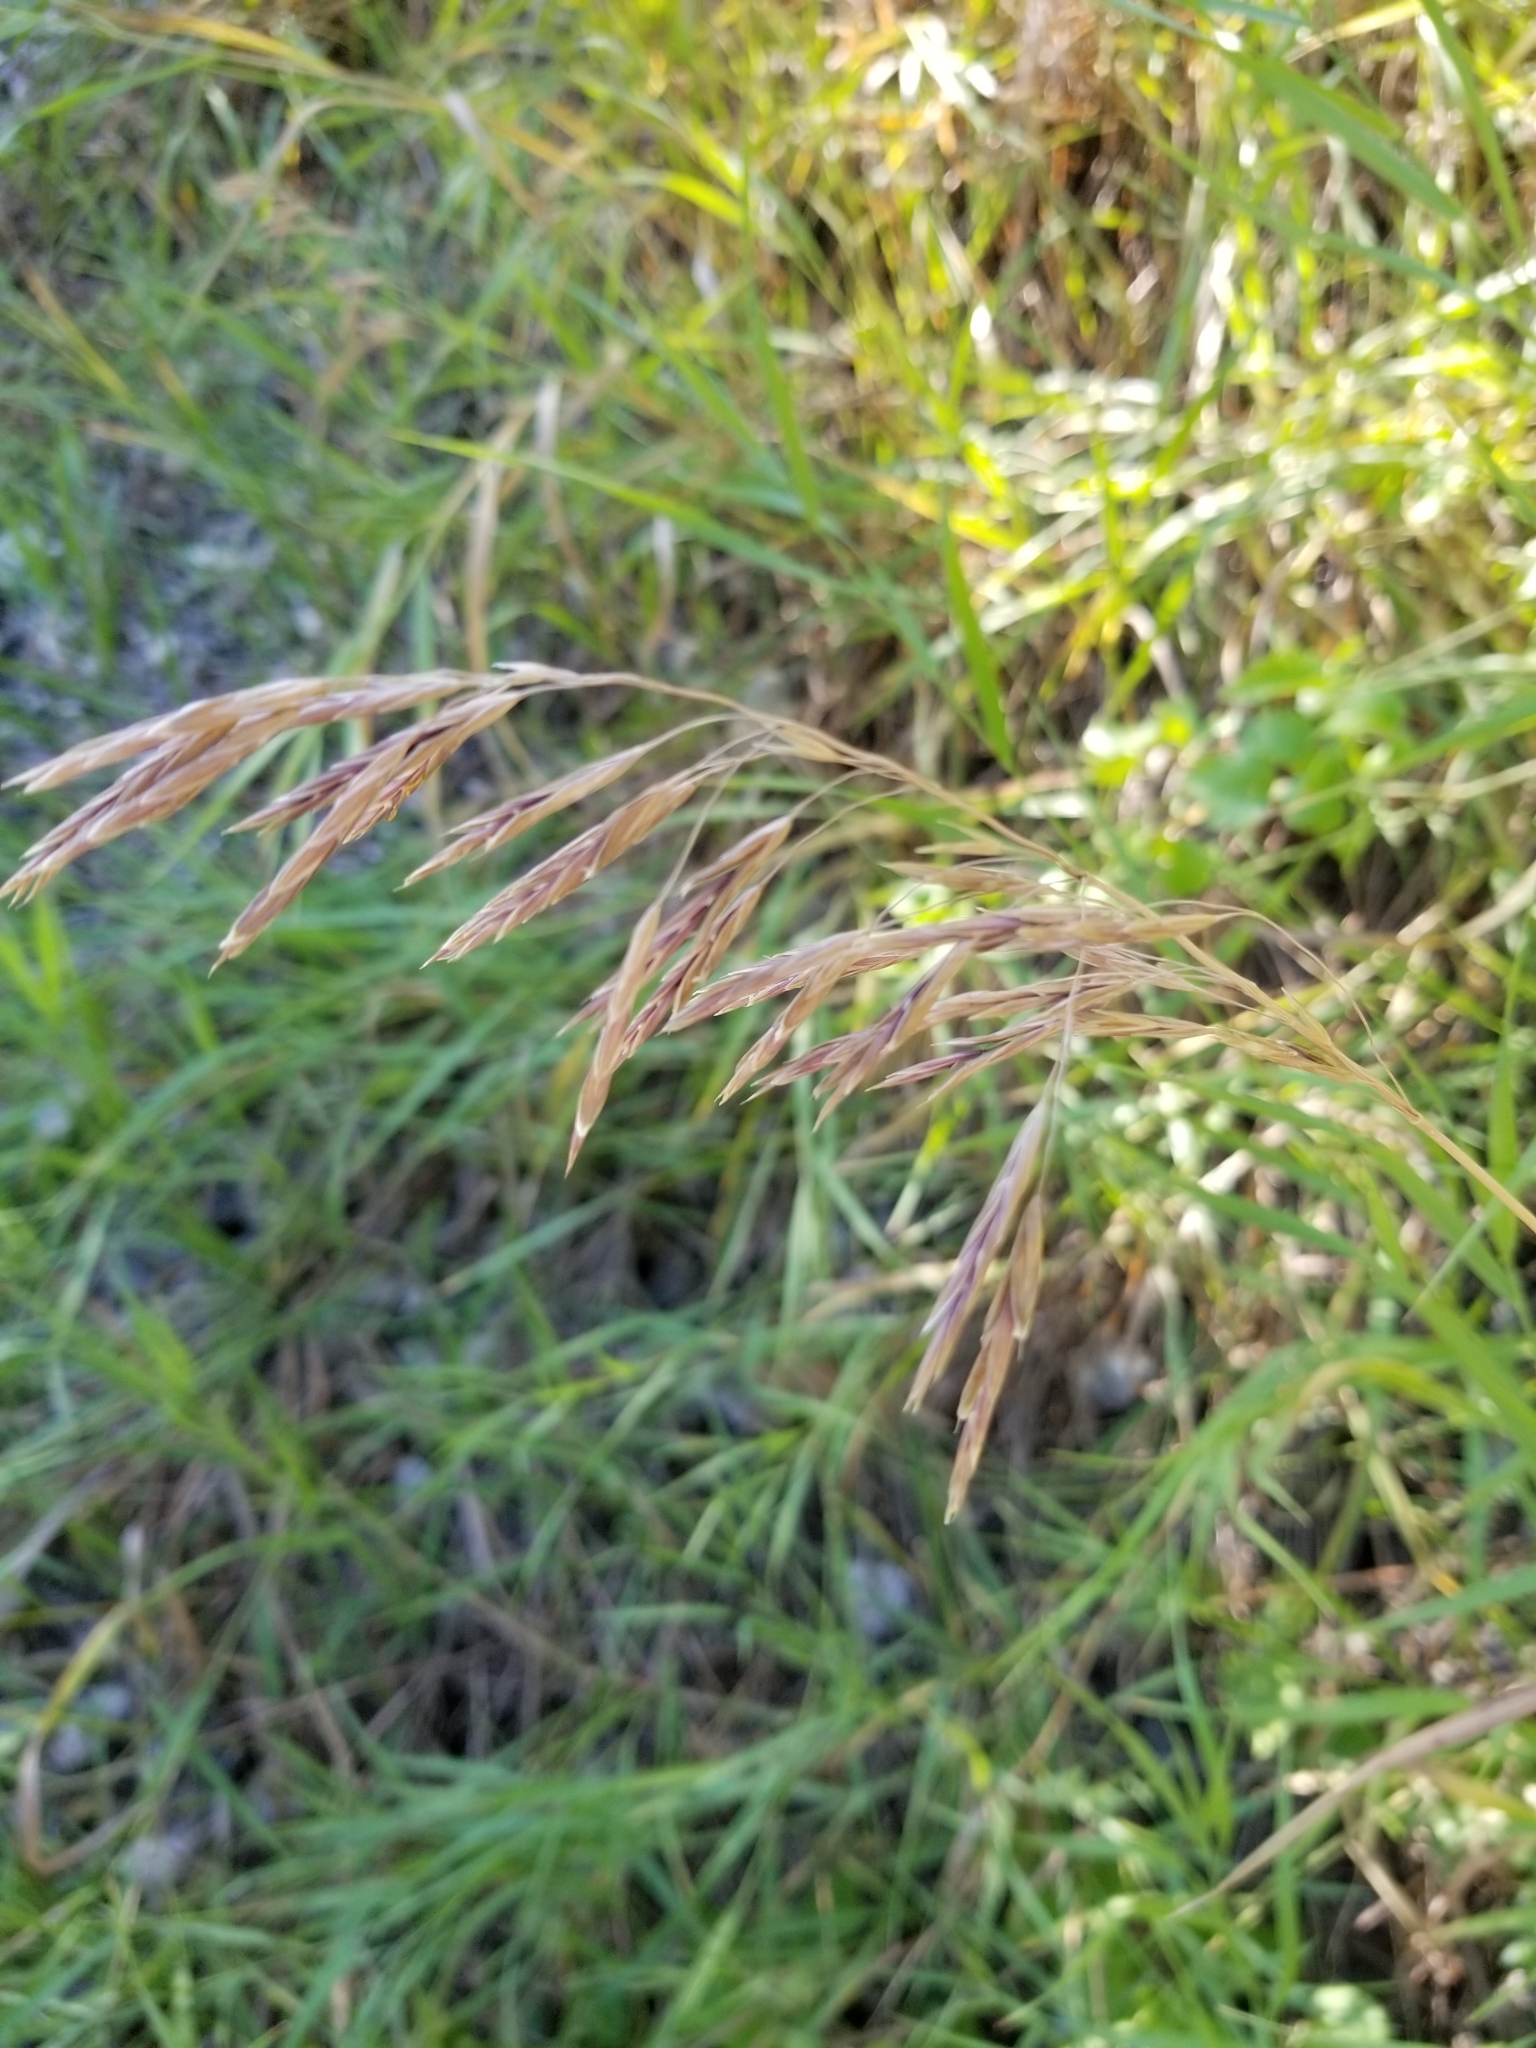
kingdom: Plantae
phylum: Tracheophyta
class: Liliopsida
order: Poales
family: Poaceae
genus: Bromus
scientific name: Bromus inermis
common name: Smooth brome
